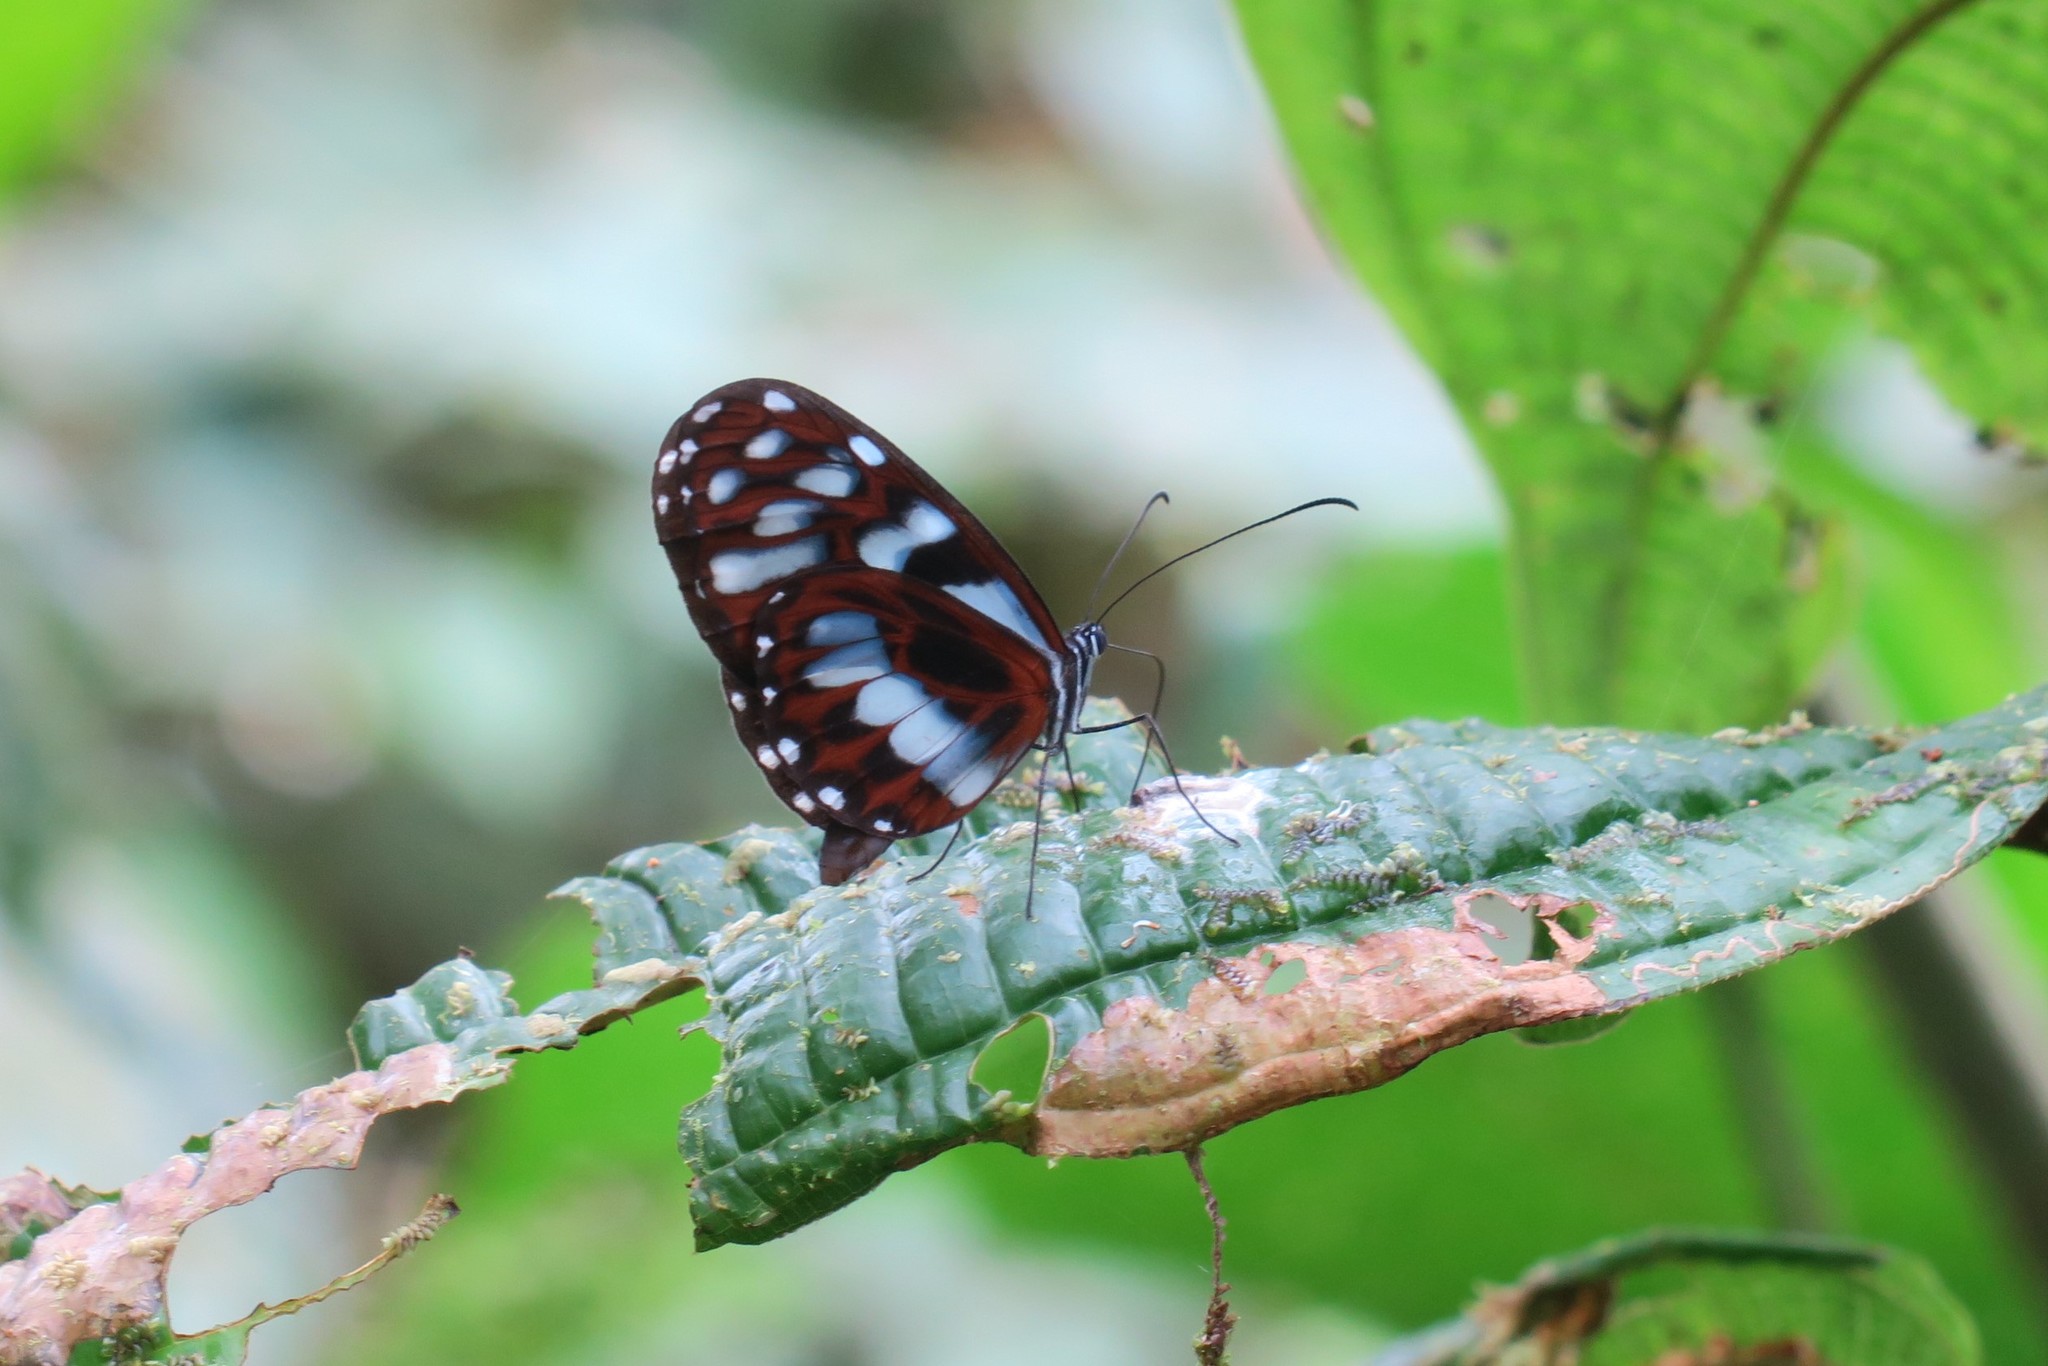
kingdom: Animalia
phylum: Arthropoda
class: Insecta
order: Lepidoptera
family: Nymphalidae
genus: Oleria
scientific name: Oleria cyrene
